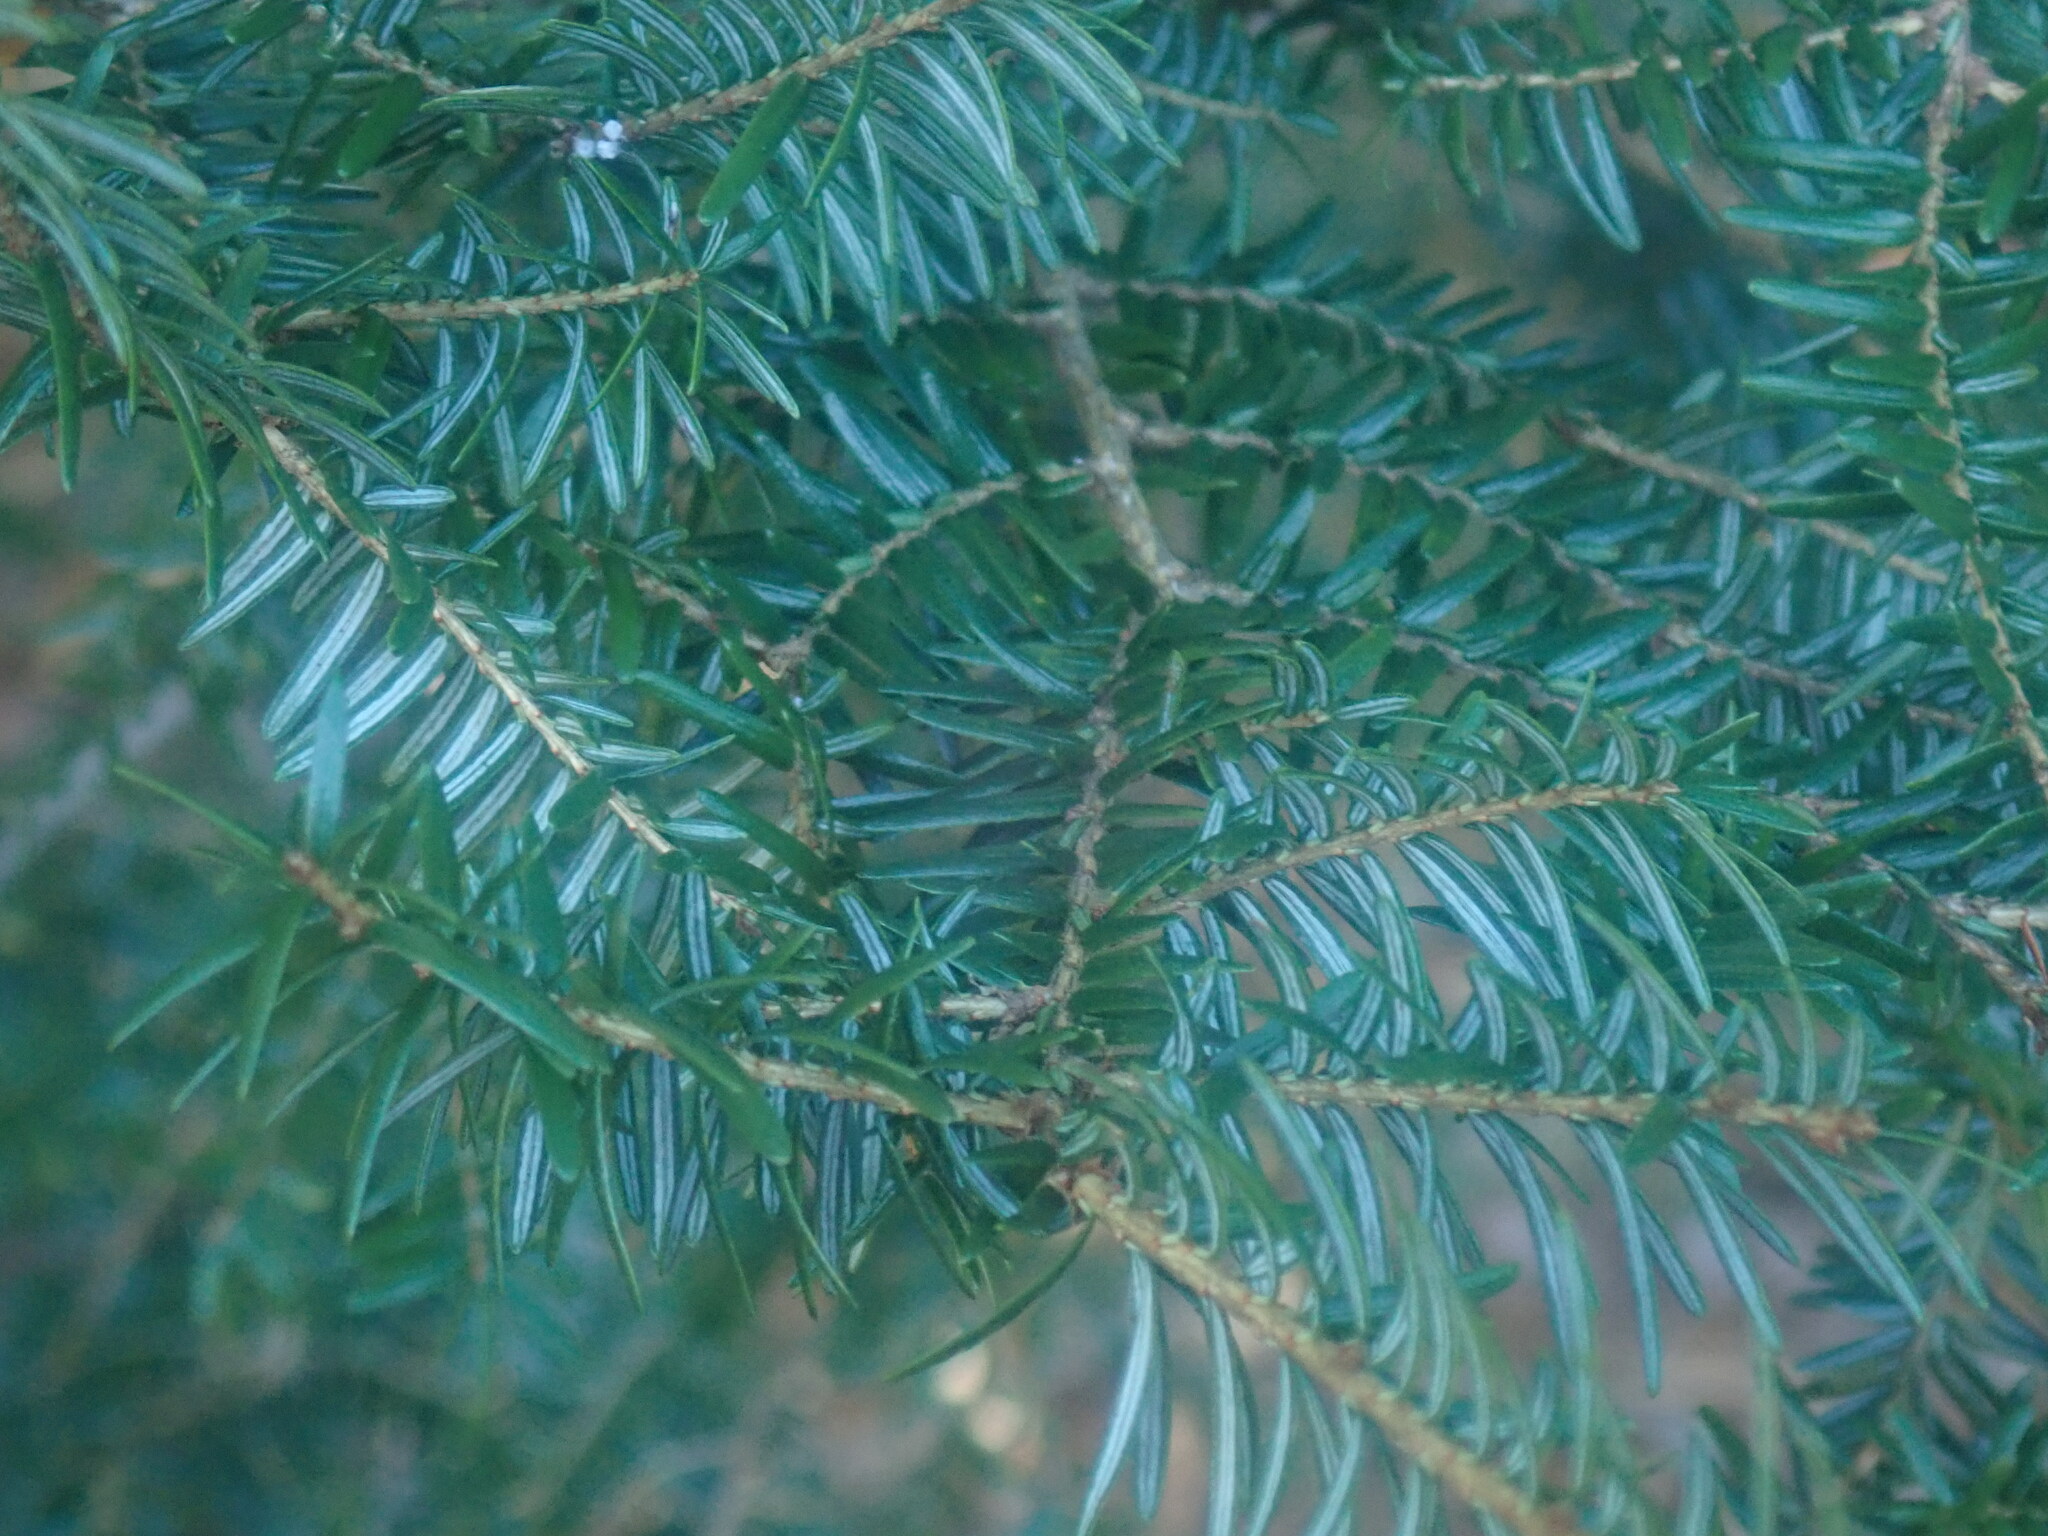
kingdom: Plantae
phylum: Tracheophyta
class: Pinopsida
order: Pinales
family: Pinaceae
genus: Tsuga
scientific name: Tsuga canadensis
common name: Eastern hemlock
